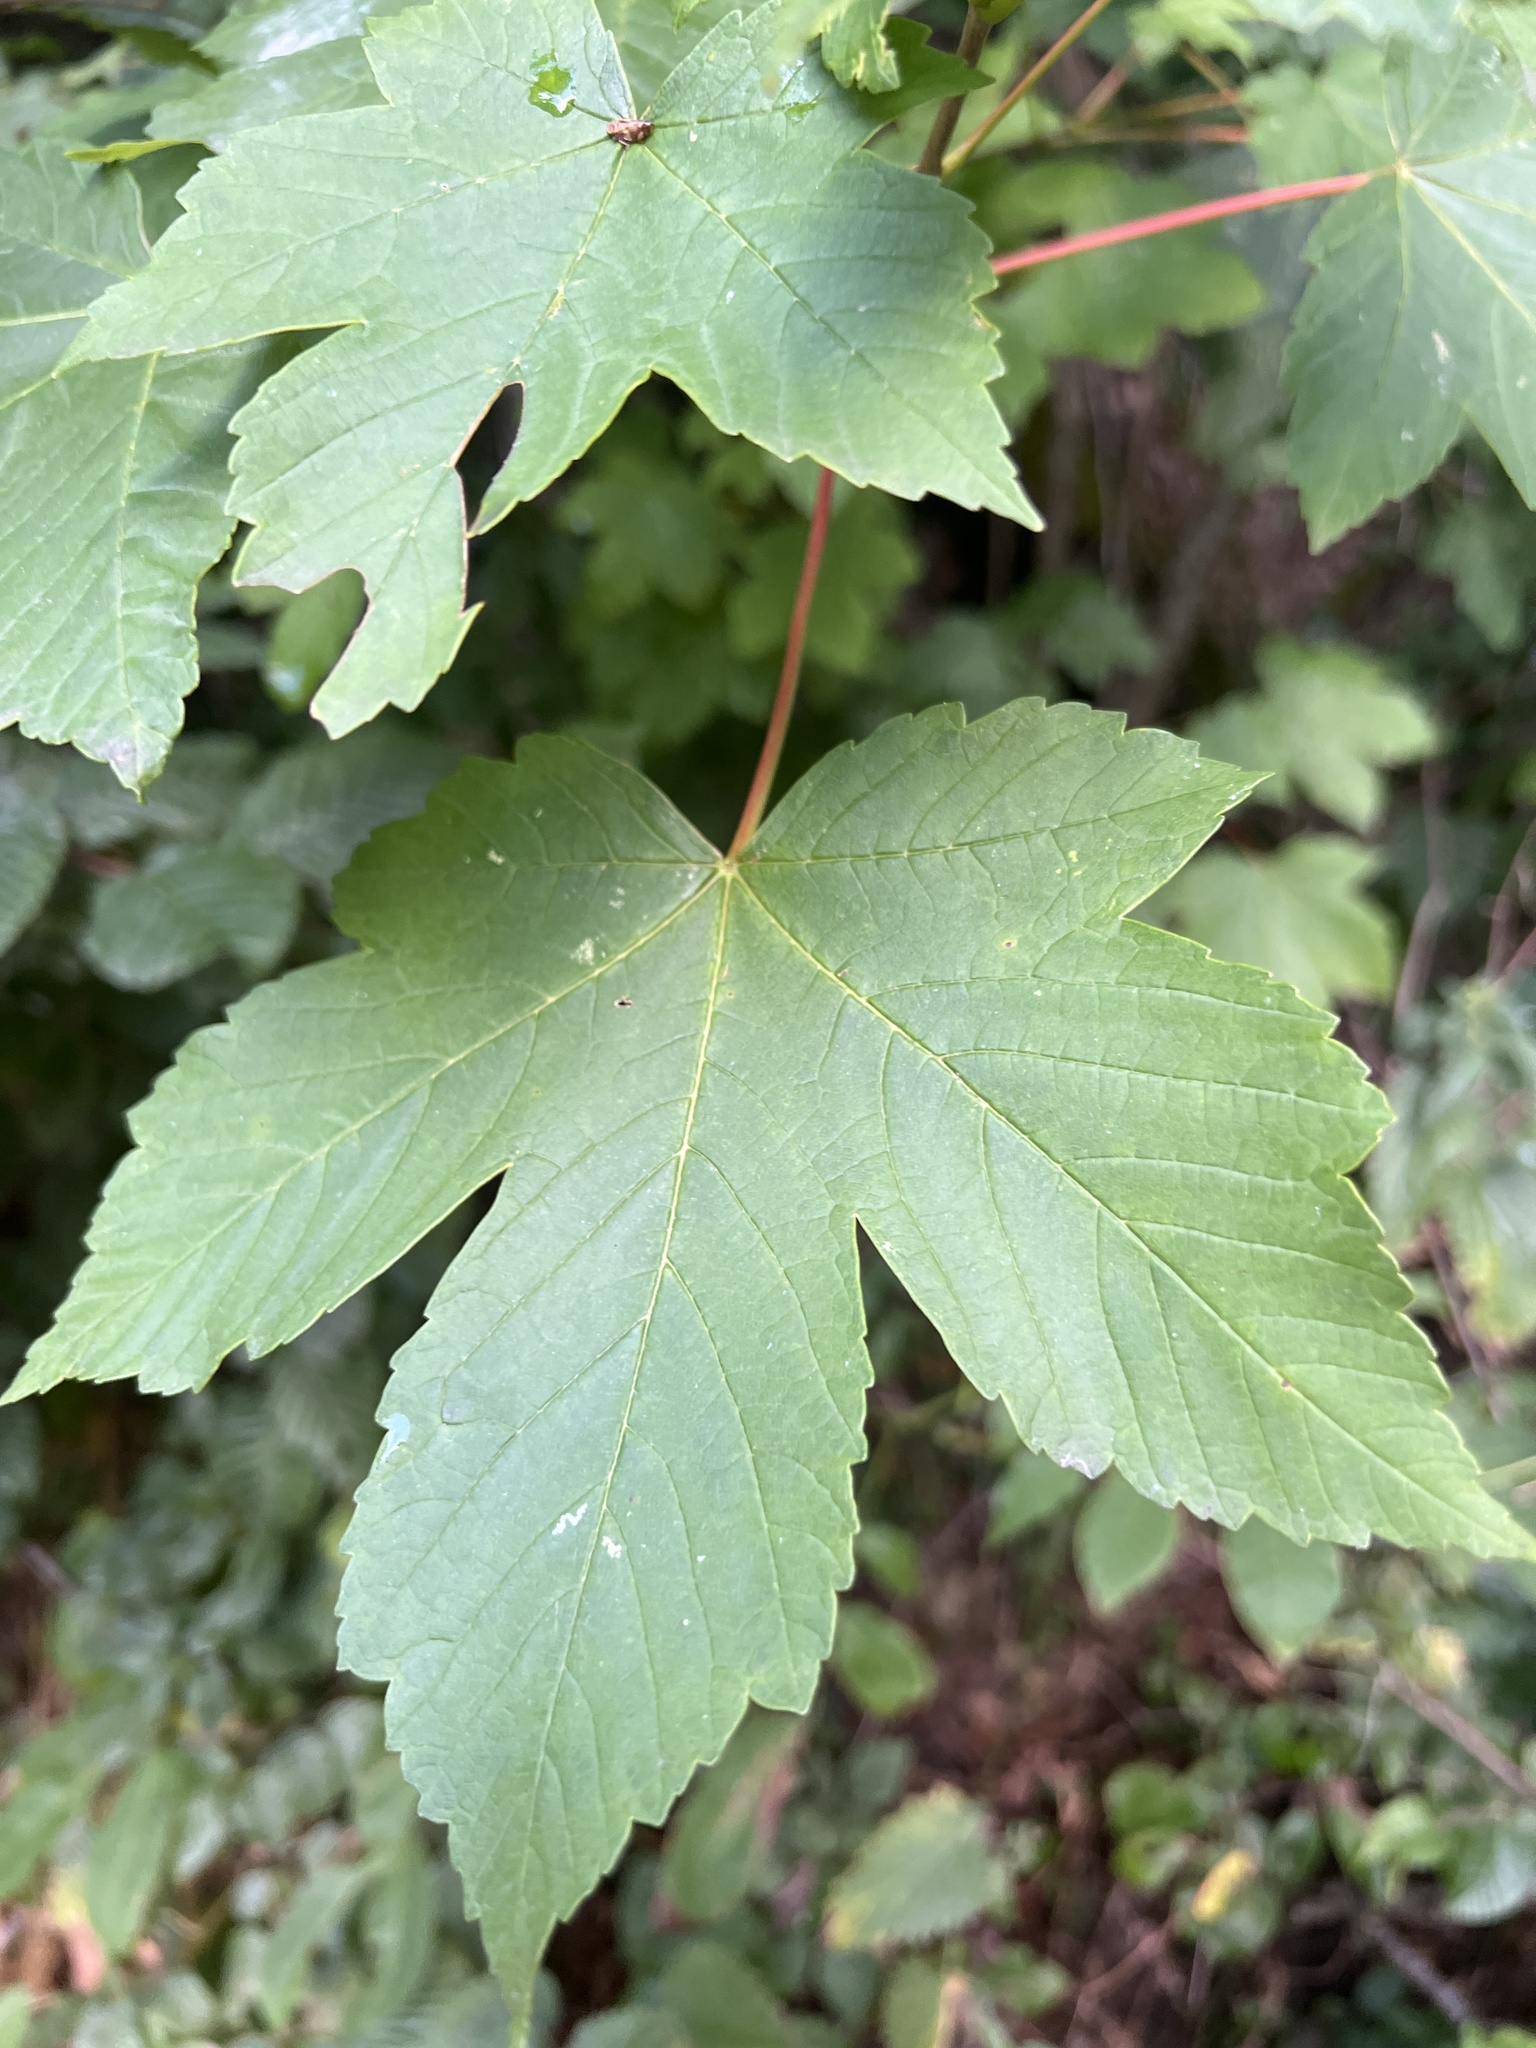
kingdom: Plantae
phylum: Tracheophyta
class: Magnoliopsida
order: Sapindales
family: Sapindaceae
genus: Acer
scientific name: Acer pseudoplatanus
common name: Sycamore
